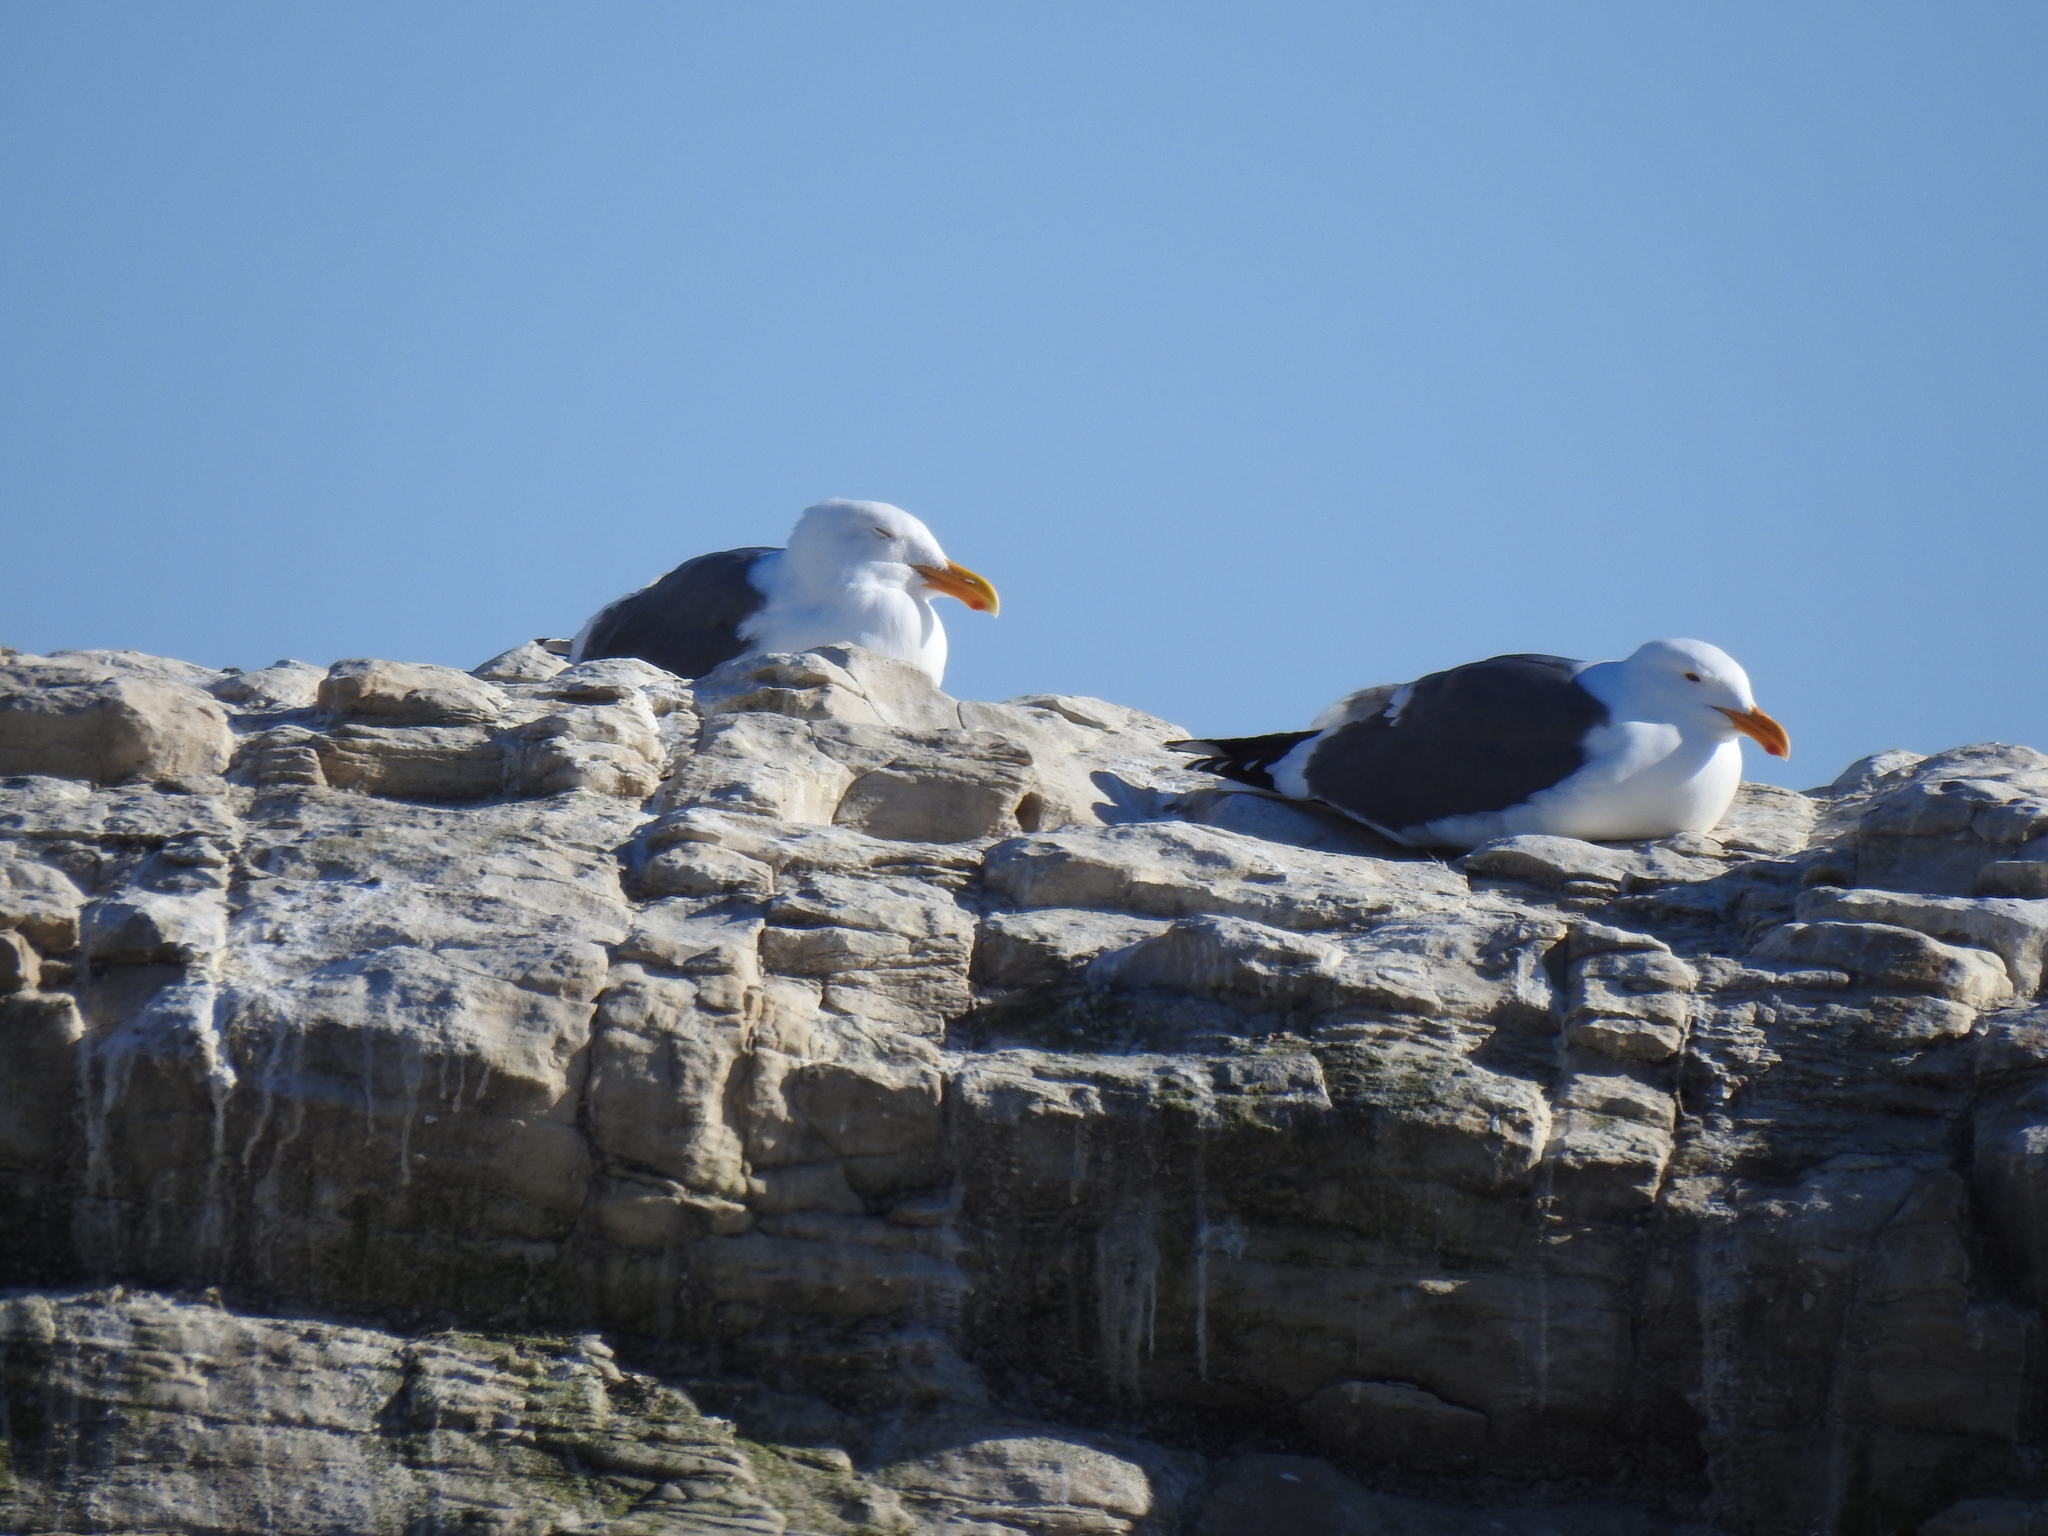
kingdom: Animalia
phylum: Chordata
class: Aves
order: Charadriiformes
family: Laridae
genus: Larus
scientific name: Larus occidentalis
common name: Western gull
